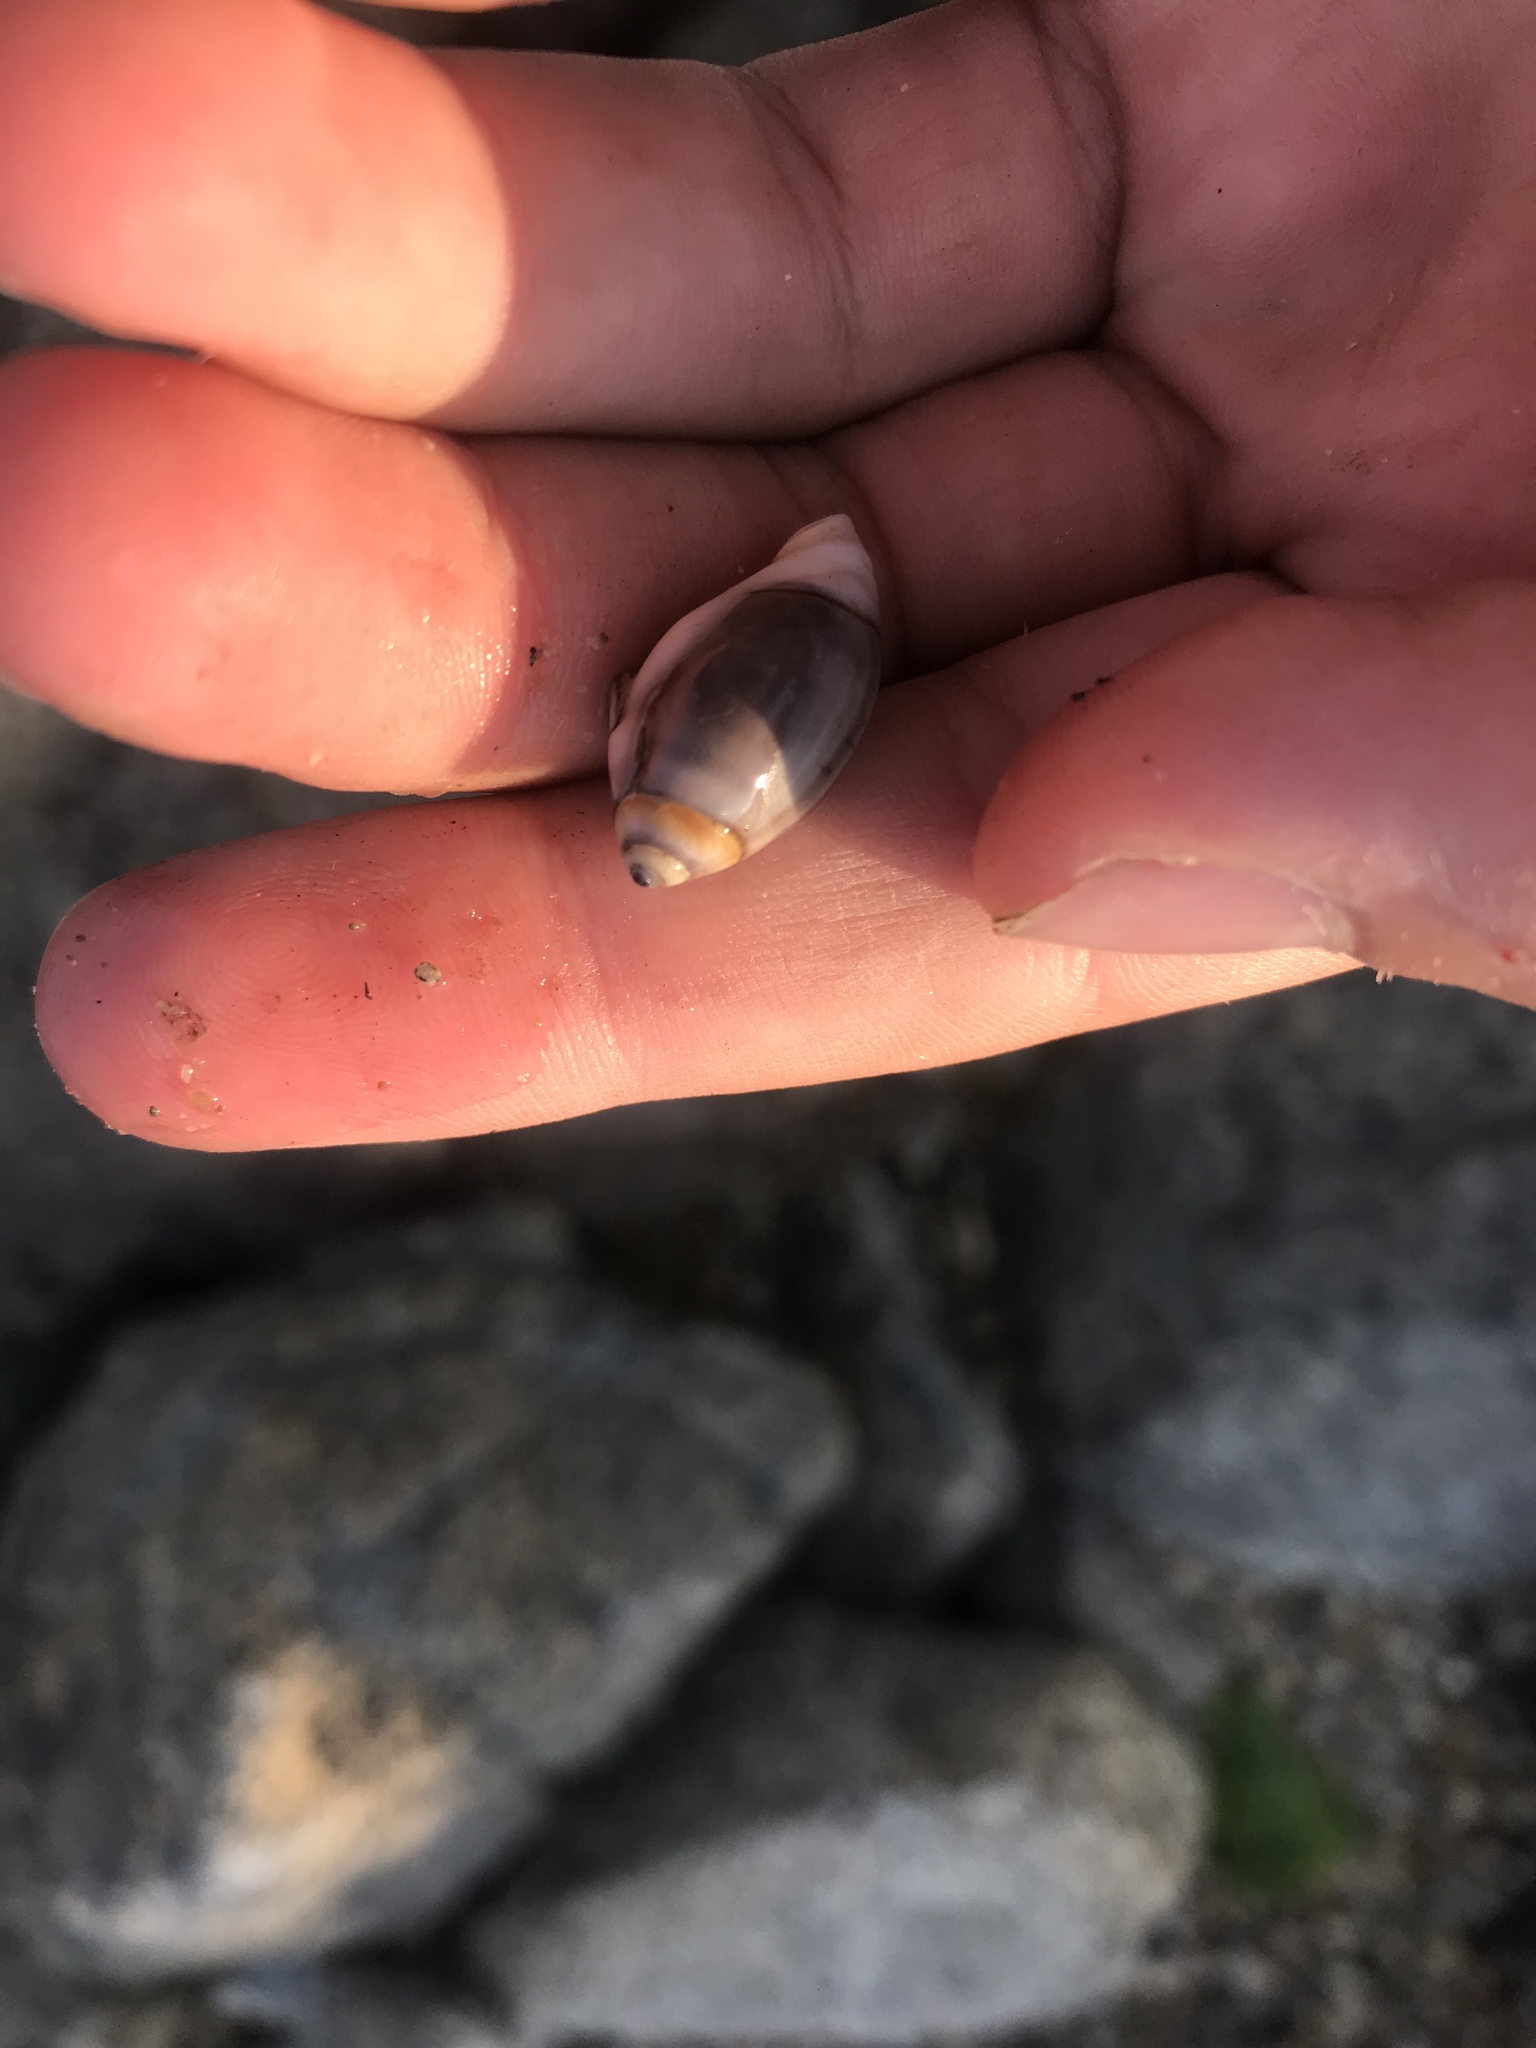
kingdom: Animalia
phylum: Mollusca
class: Gastropoda
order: Neogastropoda
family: Olividae
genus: Callianax
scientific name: Callianax biplicata
